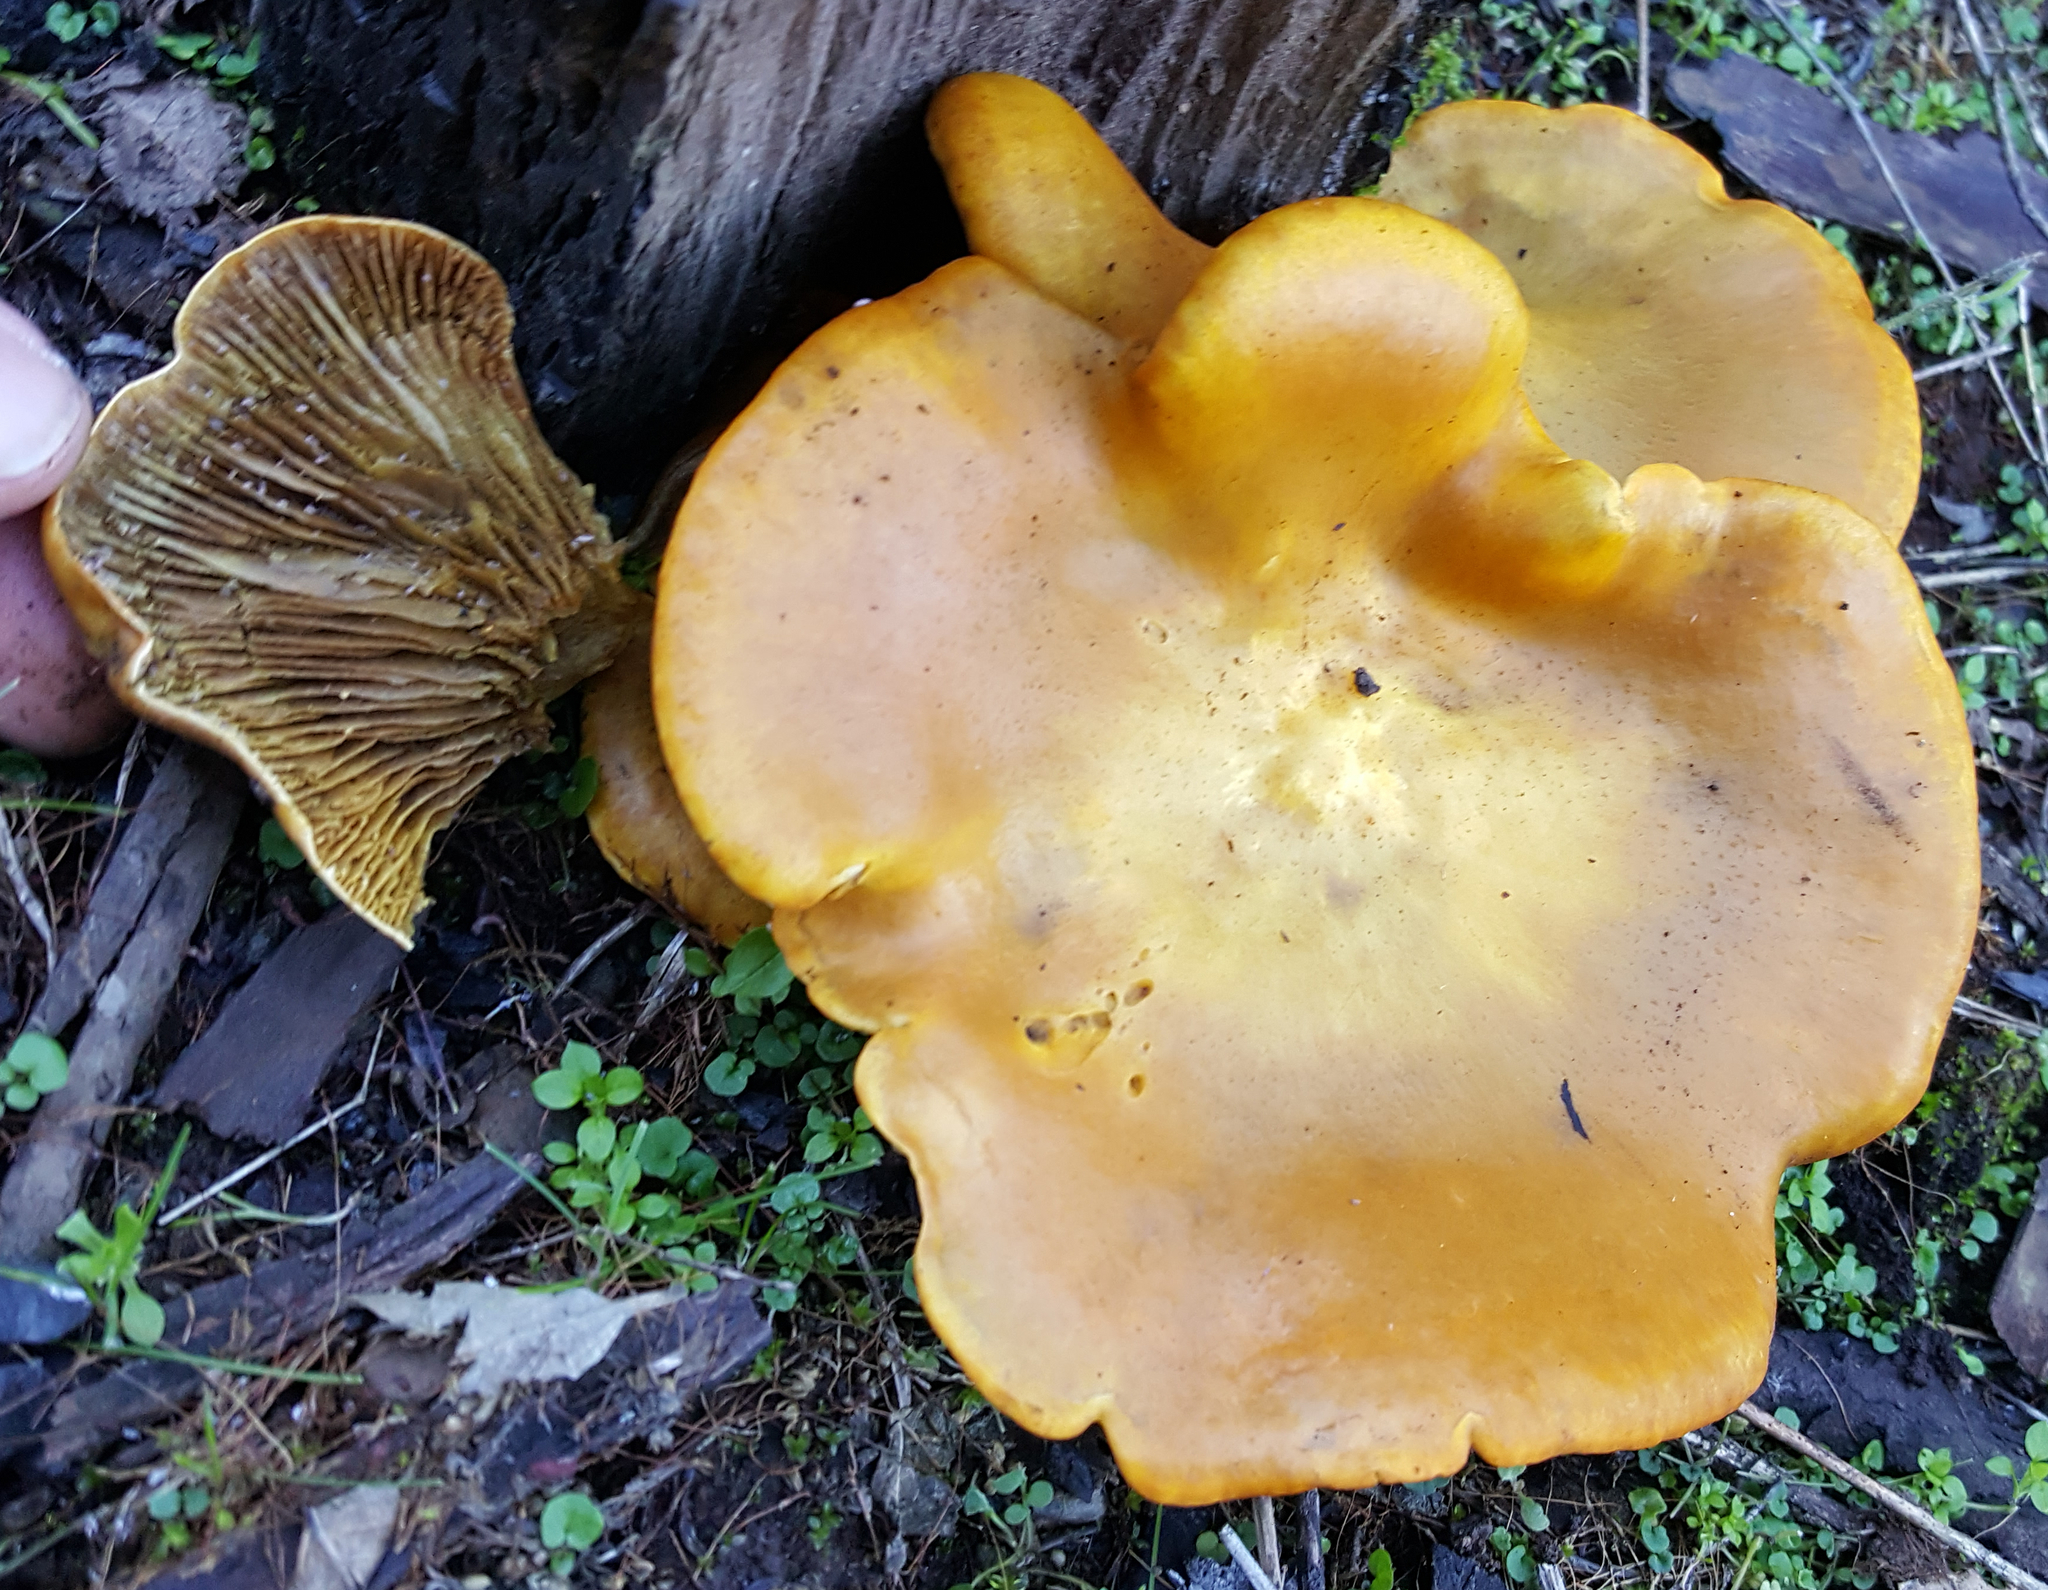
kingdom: Fungi
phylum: Basidiomycota
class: Agaricomycetes
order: Agaricales
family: Omphalotaceae
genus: Omphalotus
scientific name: Omphalotus olivascens
